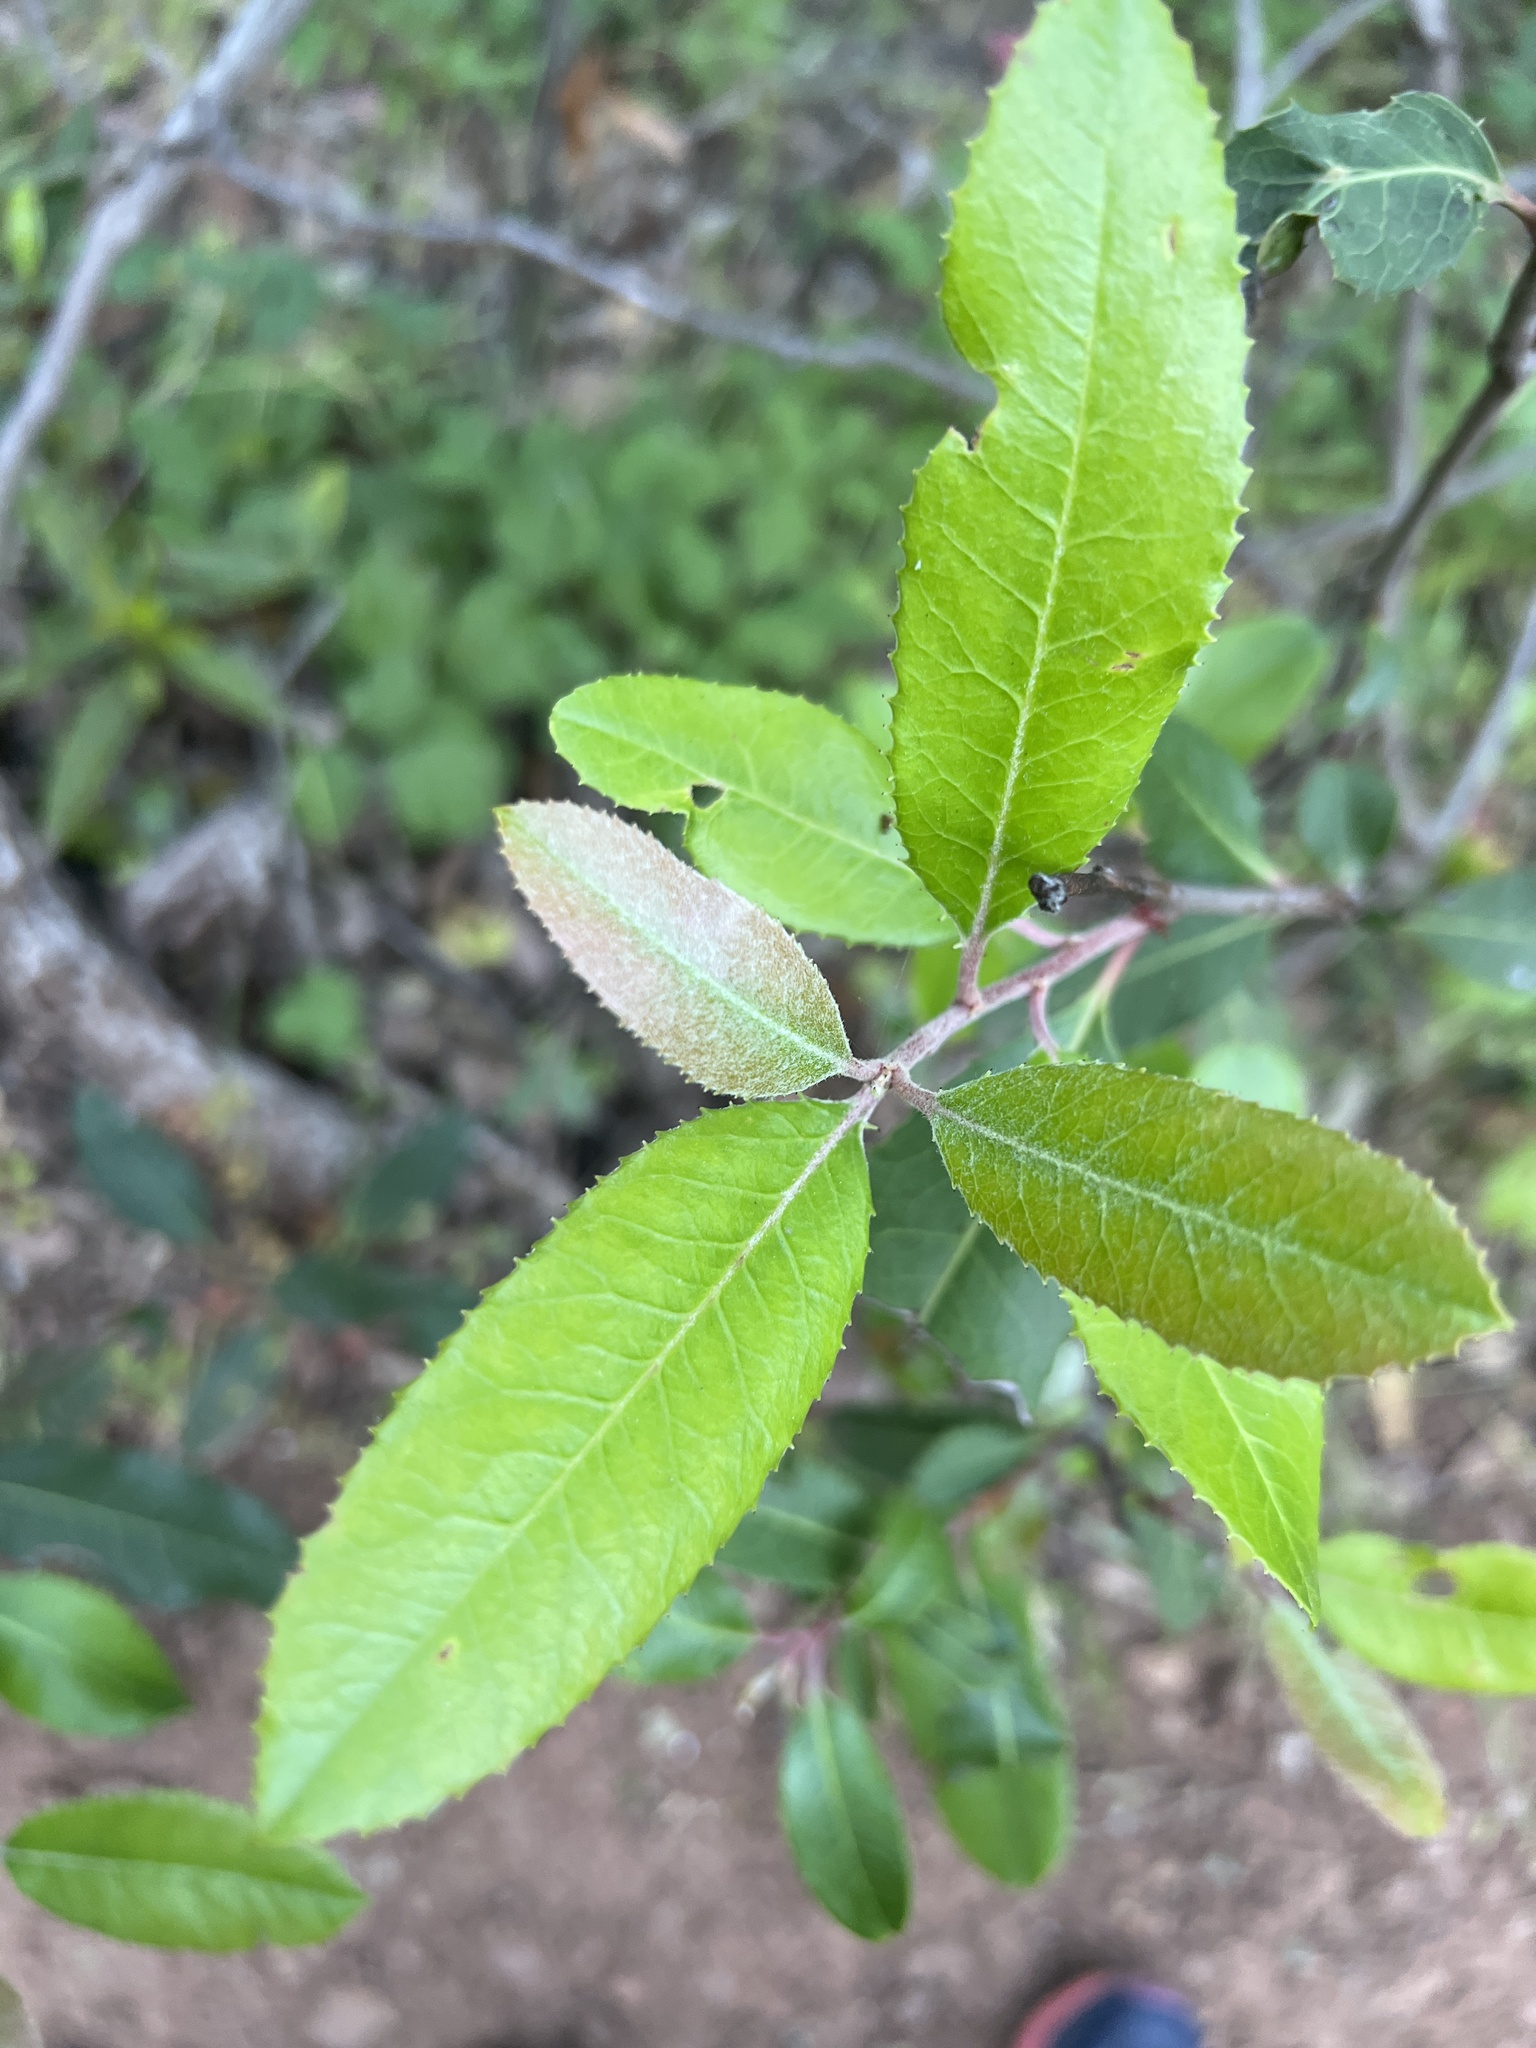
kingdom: Plantae
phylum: Tracheophyta
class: Magnoliopsida
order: Rosales
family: Rosaceae
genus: Heteromeles
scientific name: Heteromeles arbutifolia
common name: California-holly
